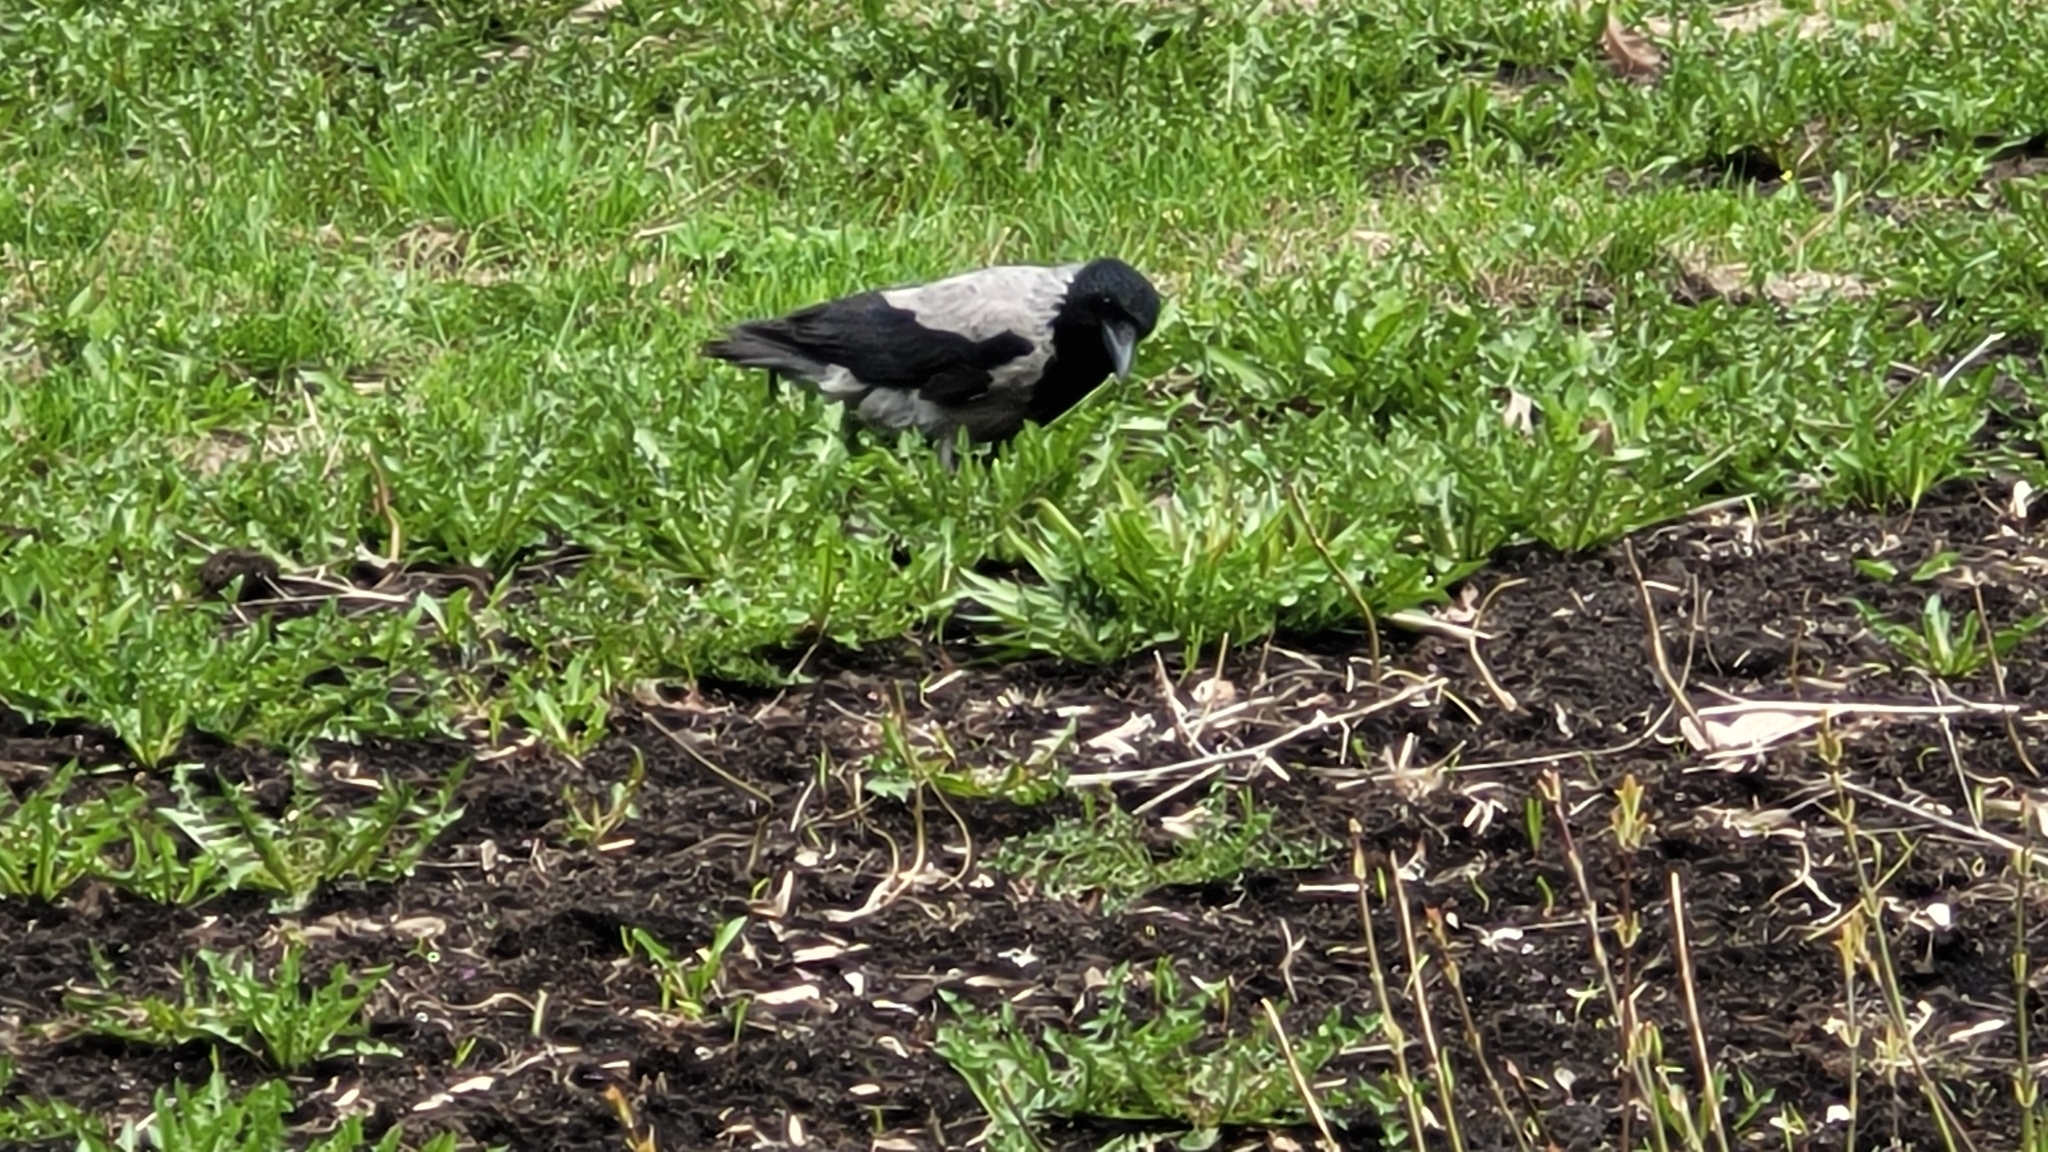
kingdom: Animalia
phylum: Chordata
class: Aves
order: Passeriformes
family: Corvidae
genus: Corvus
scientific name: Corvus cornix
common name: Hooded crow
